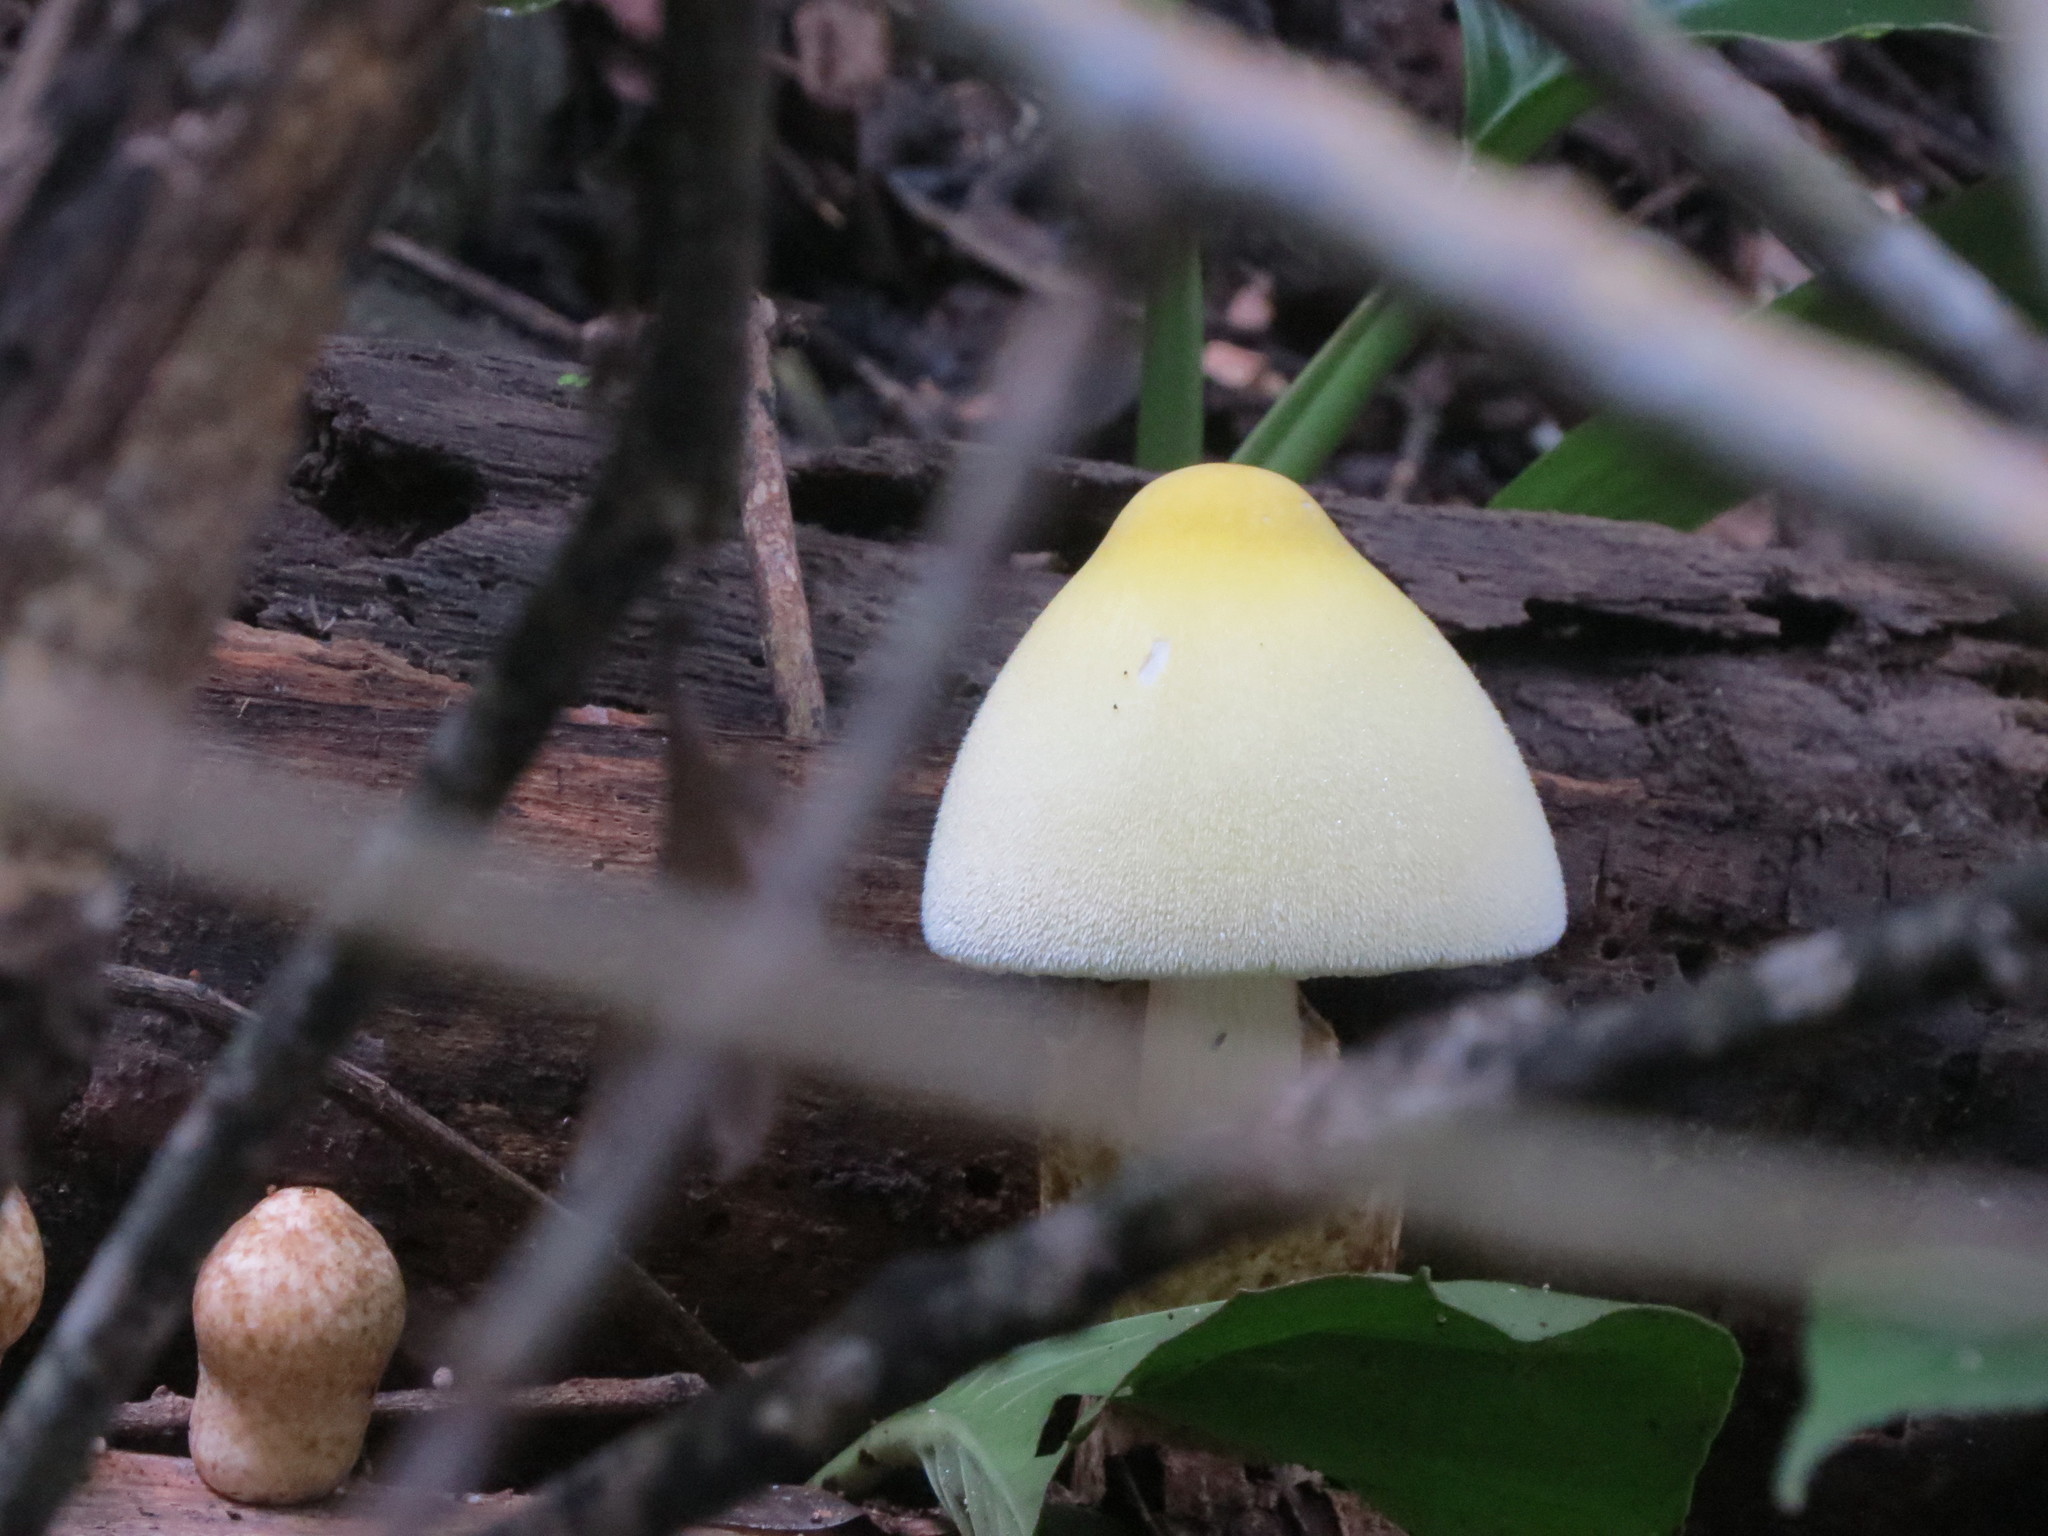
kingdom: Fungi
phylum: Basidiomycota
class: Agaricomycetes
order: Agaricales
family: Pluteaceae
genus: Volvariella
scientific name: Volvariella bombycina
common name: Silky rosegill
